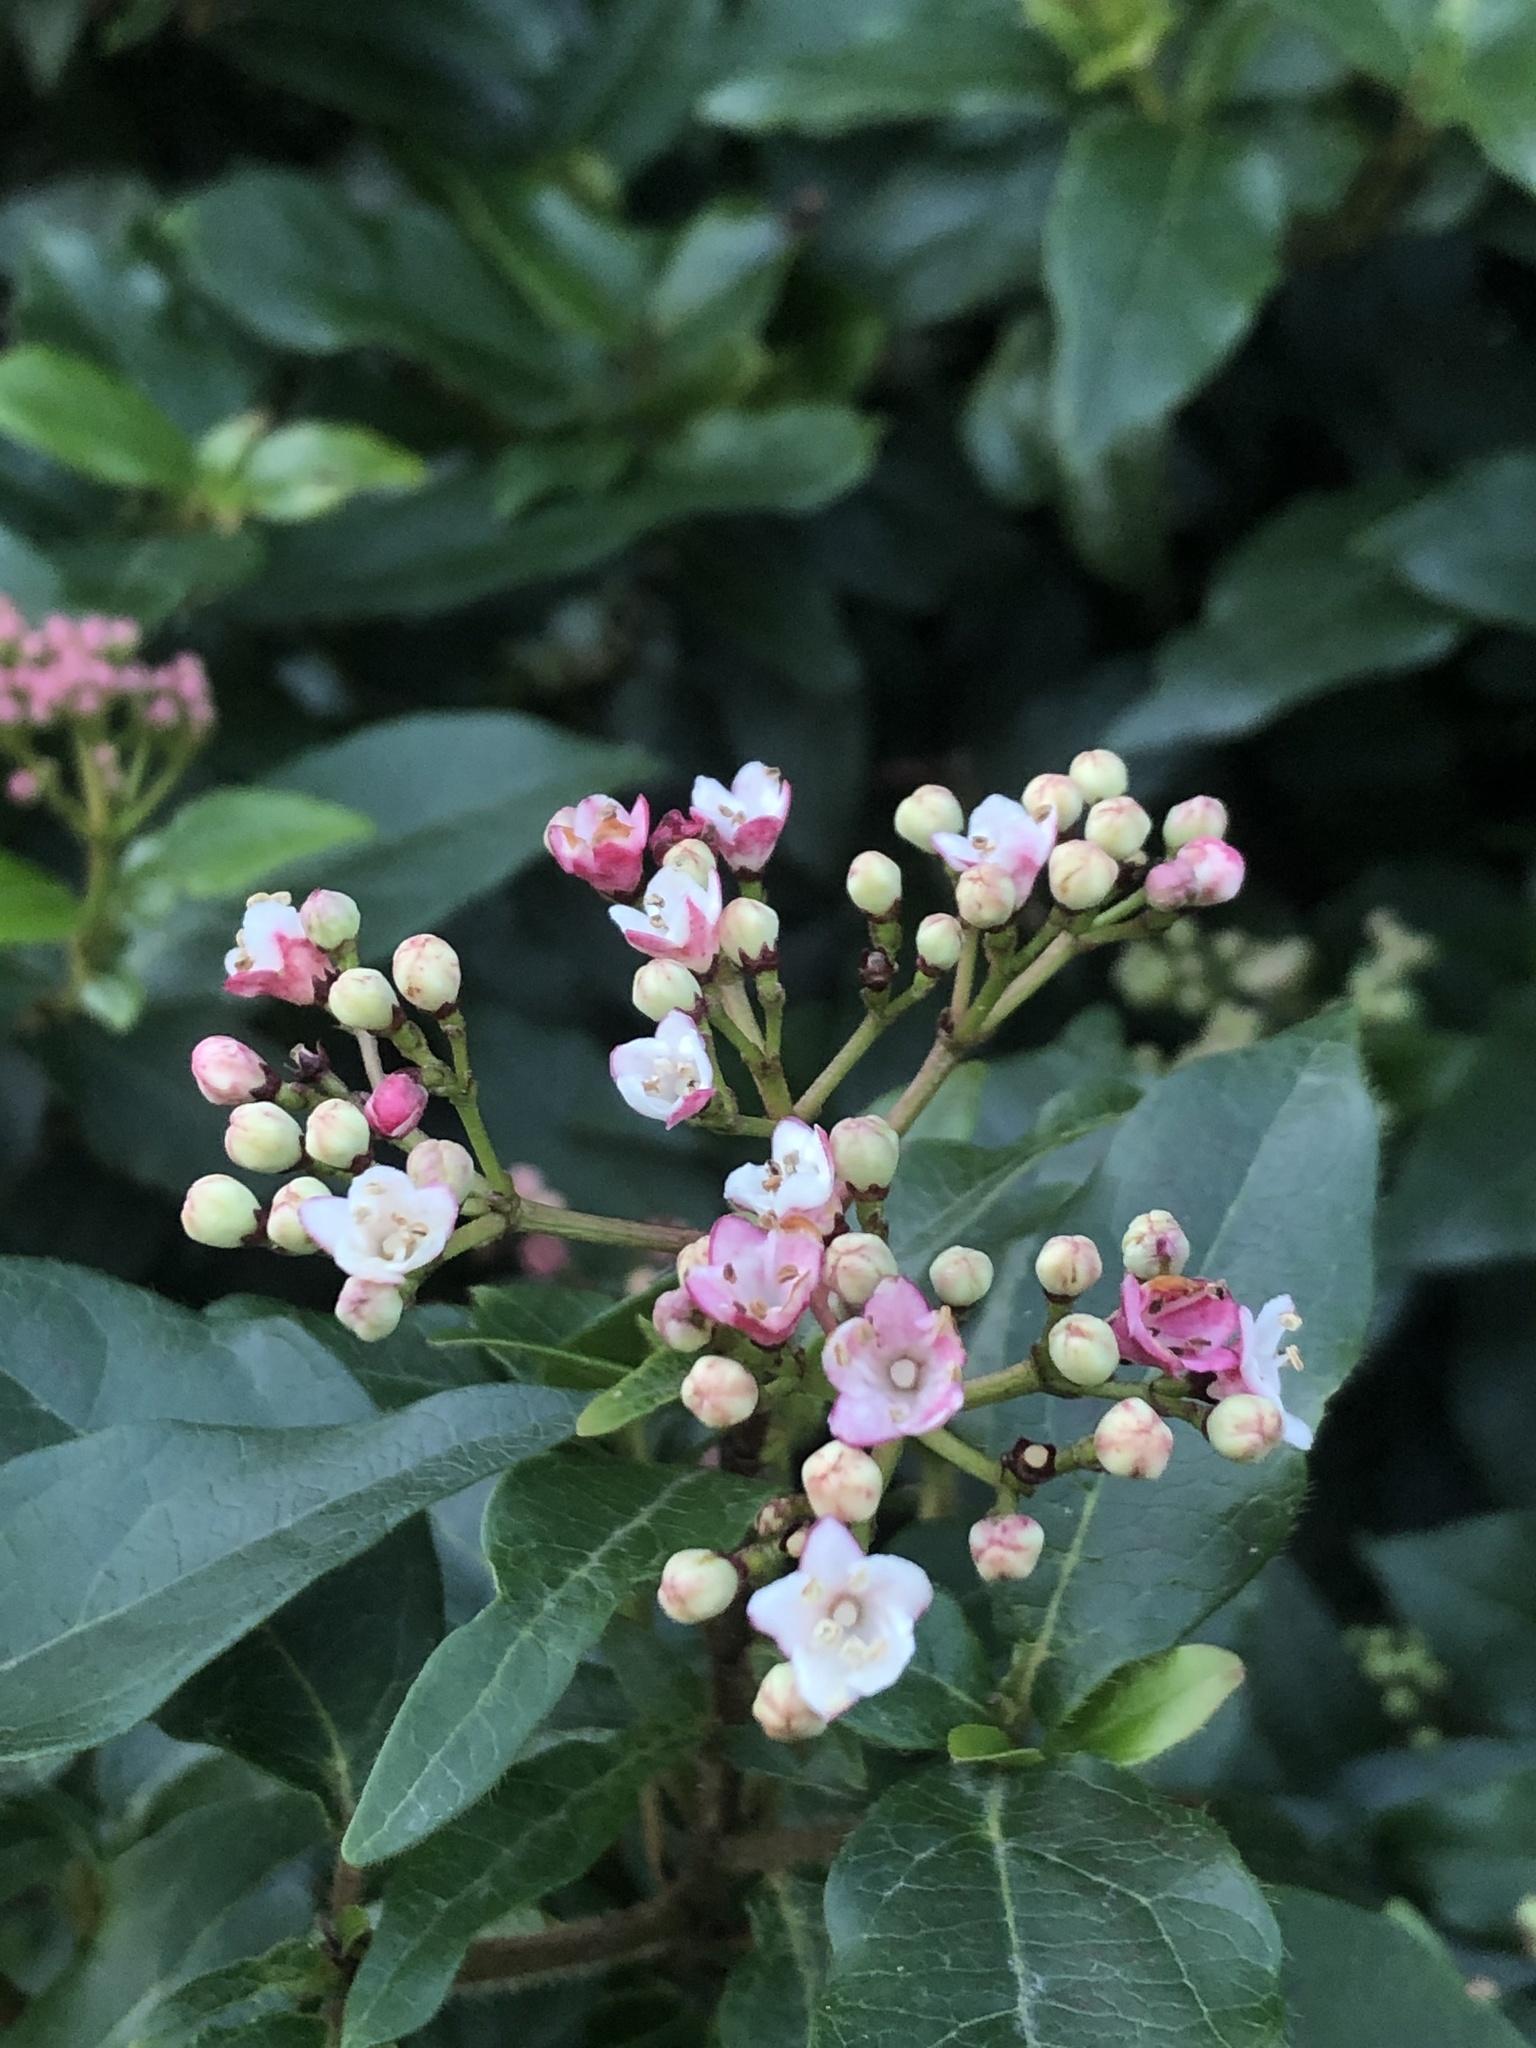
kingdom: Plantae
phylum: Tracheophyta
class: Magnoliopsida
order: Dipsacales
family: Viburnaceae
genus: Viburnum
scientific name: Viburnum tinus
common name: Laurustinus
